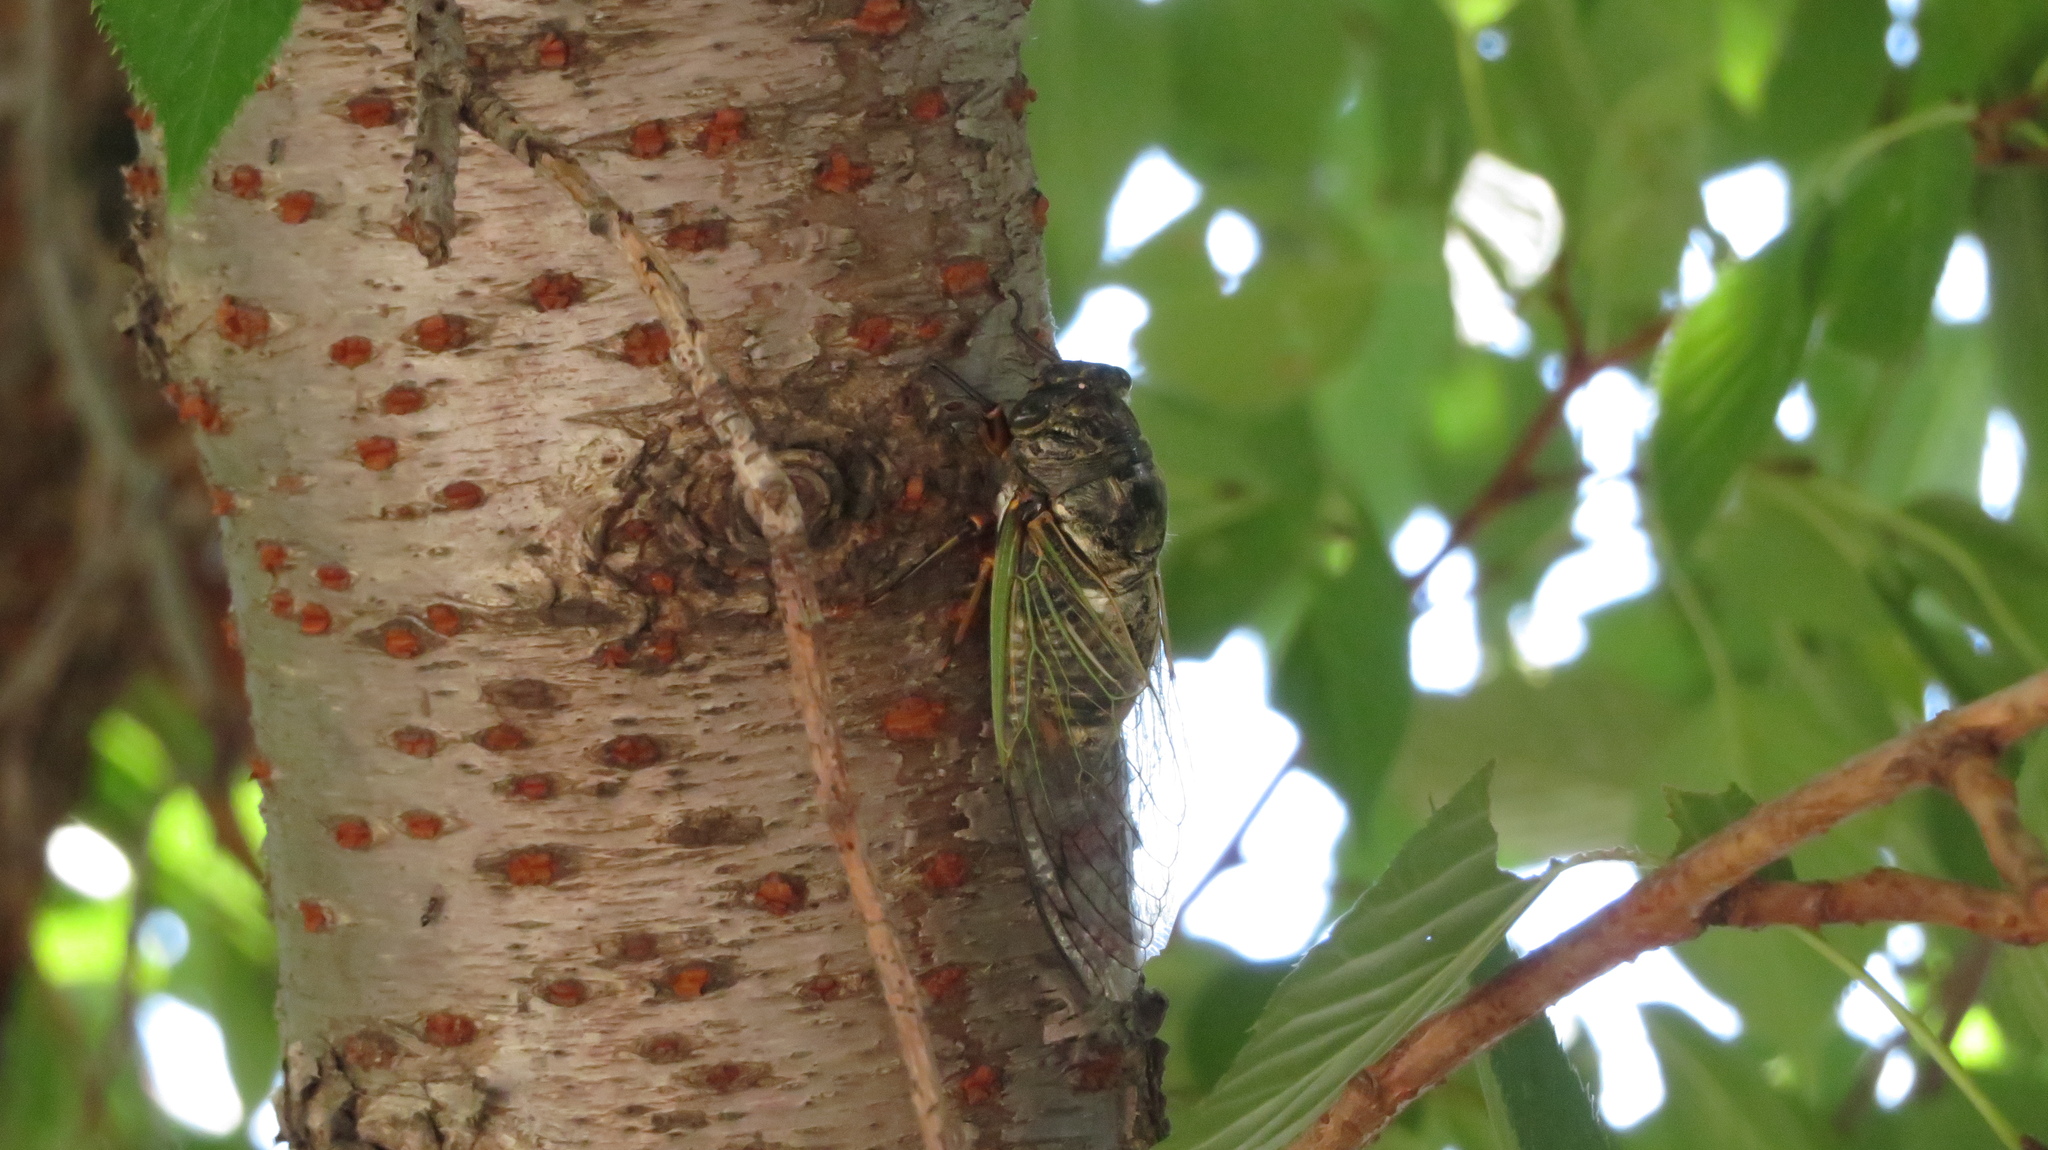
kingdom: Animalia
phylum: Arthropoda
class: Insecta
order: Hemiptera
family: Cicadidae
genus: Cryptotympana
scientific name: Cryptotympana facialis
